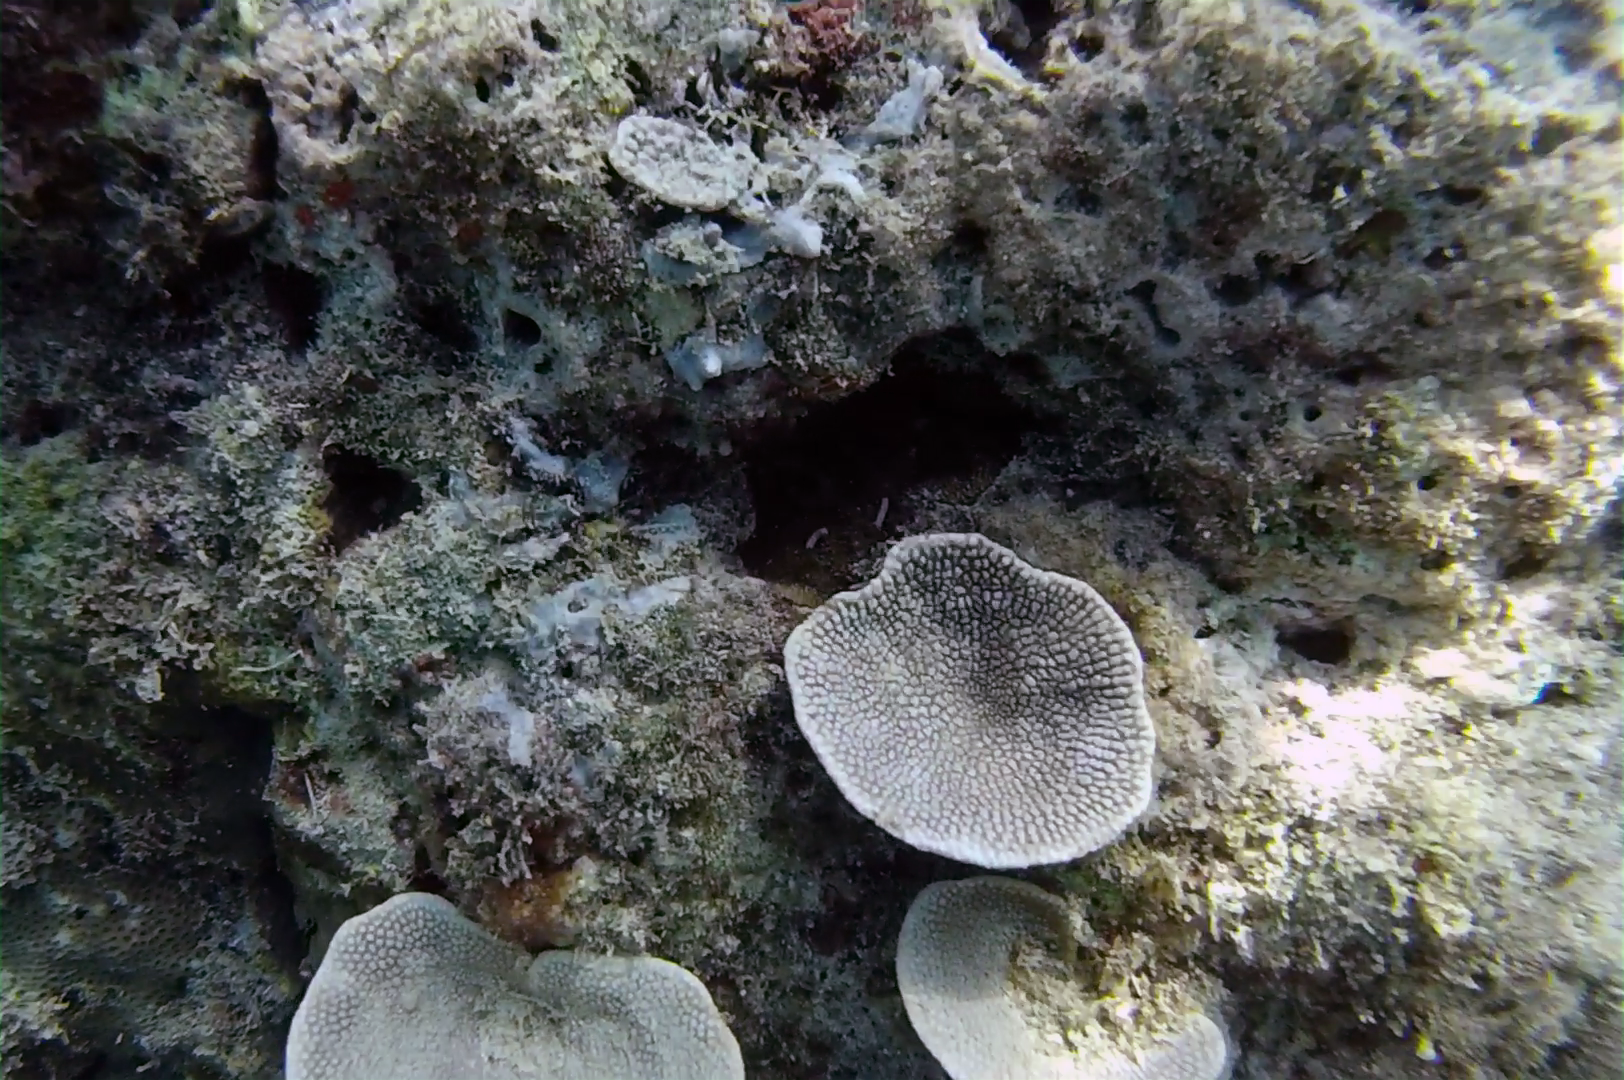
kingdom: Animalia
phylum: Porifera
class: Demospongiae
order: Dictyoceratida
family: Thorectidae
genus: Phyllospongia
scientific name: Phyllospongia foliascens
